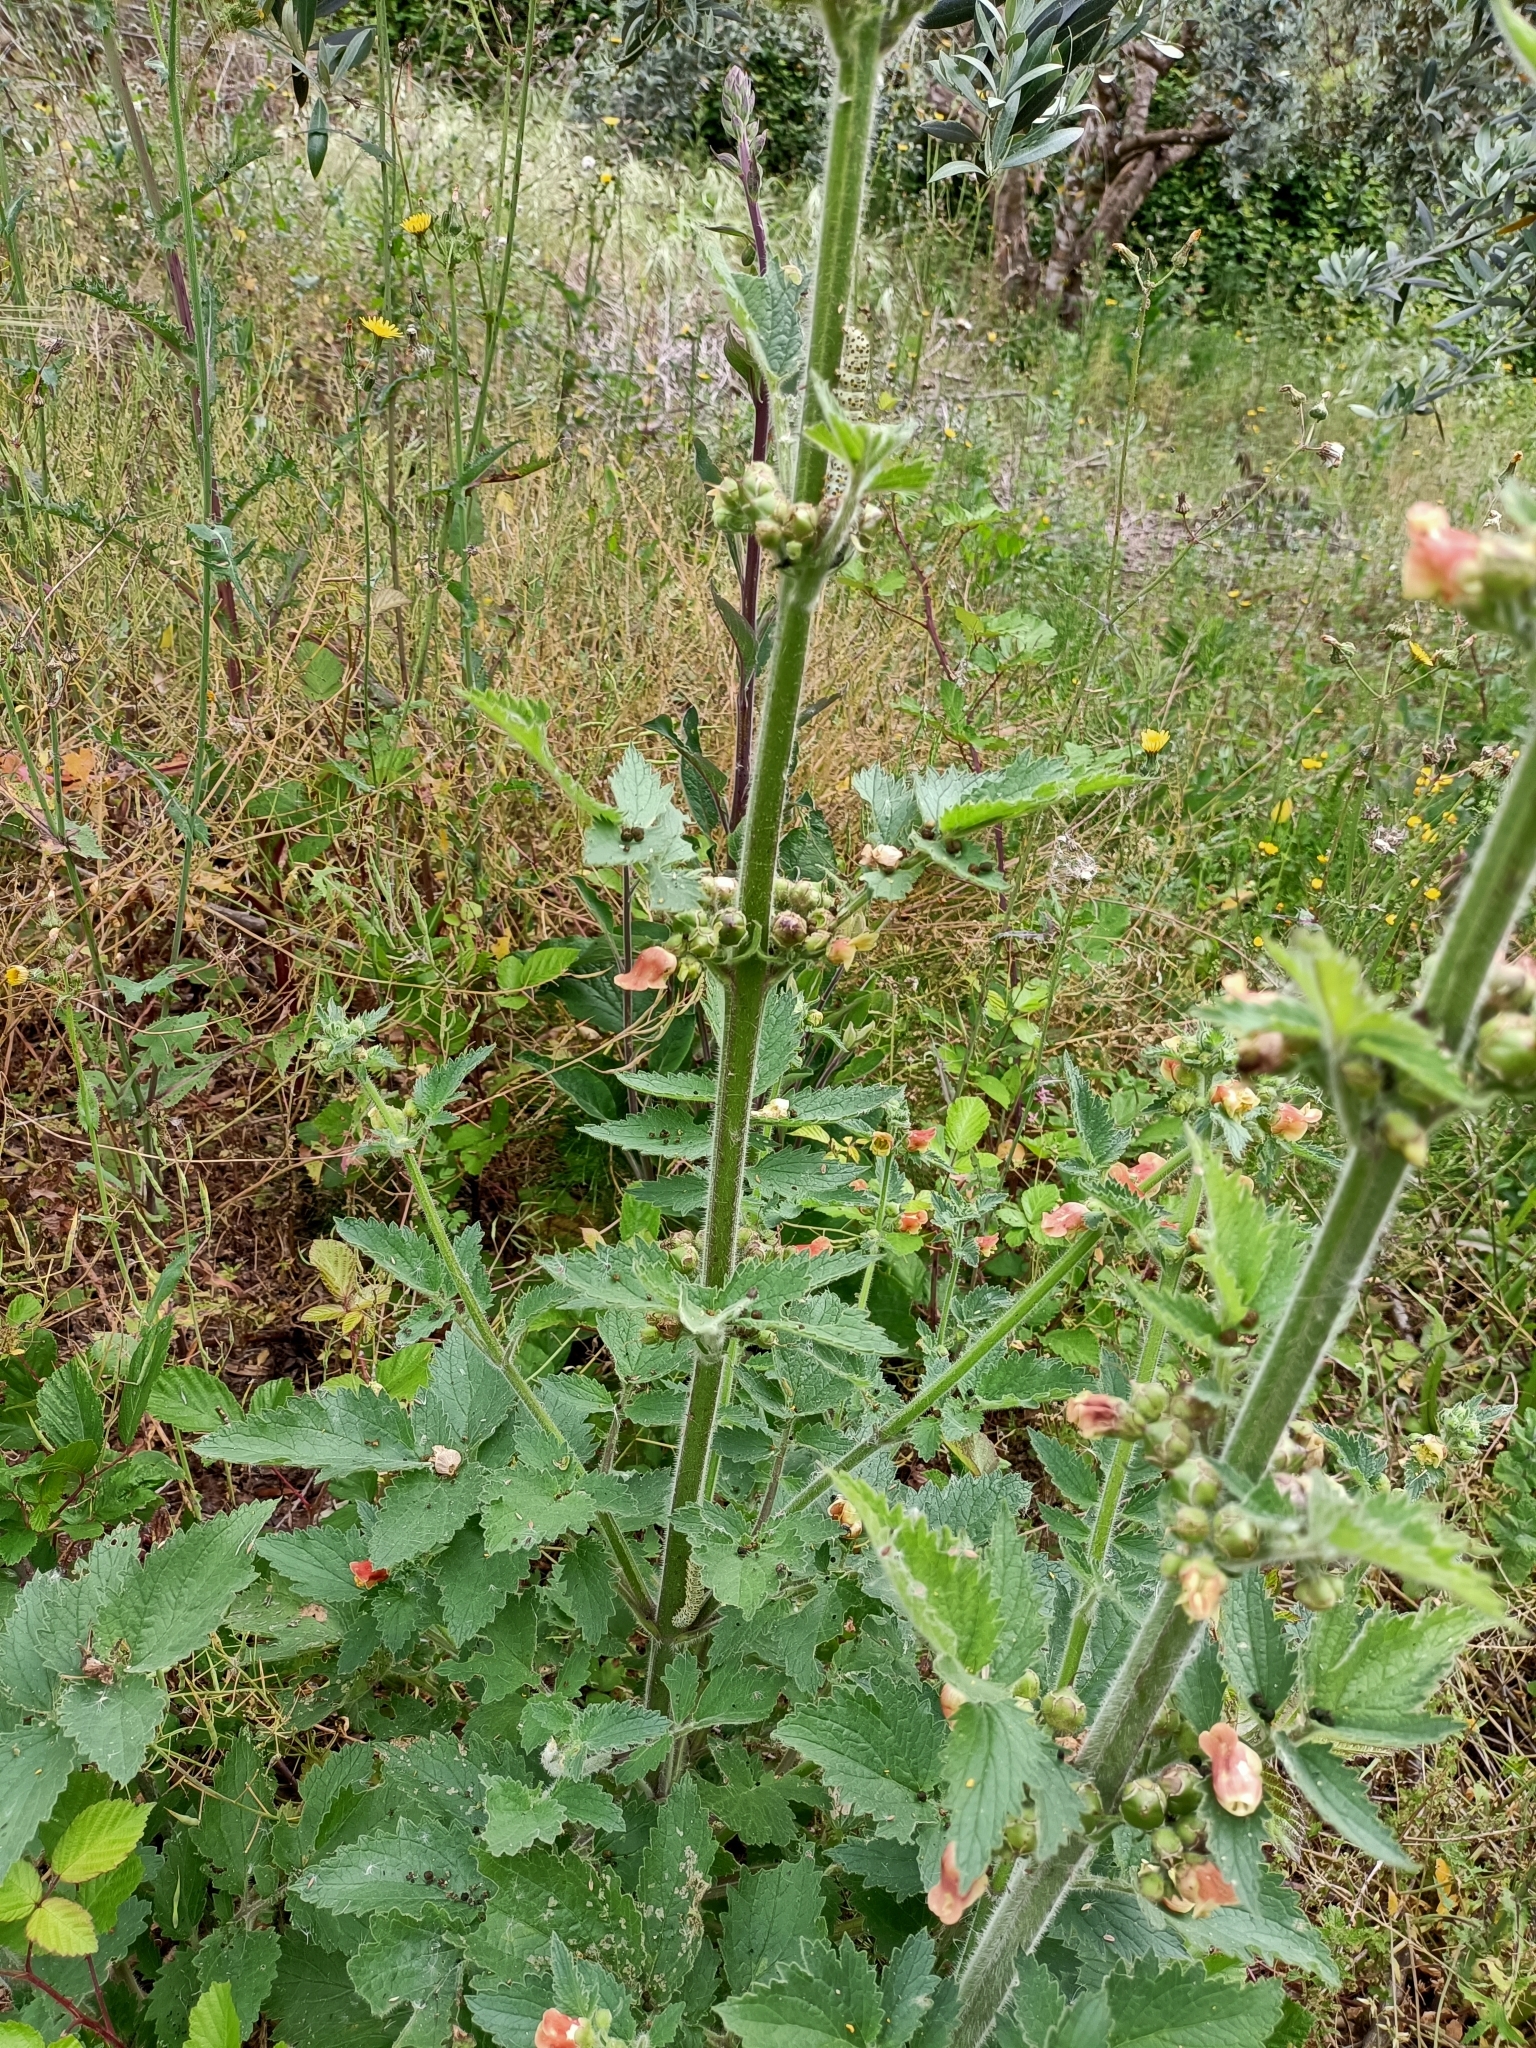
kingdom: Plantae
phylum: Tracheophyta
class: Magnoliopsida
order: Lamiales
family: Scrophulariaceae
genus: Scrophularia
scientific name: Scrophularia grandiflora
